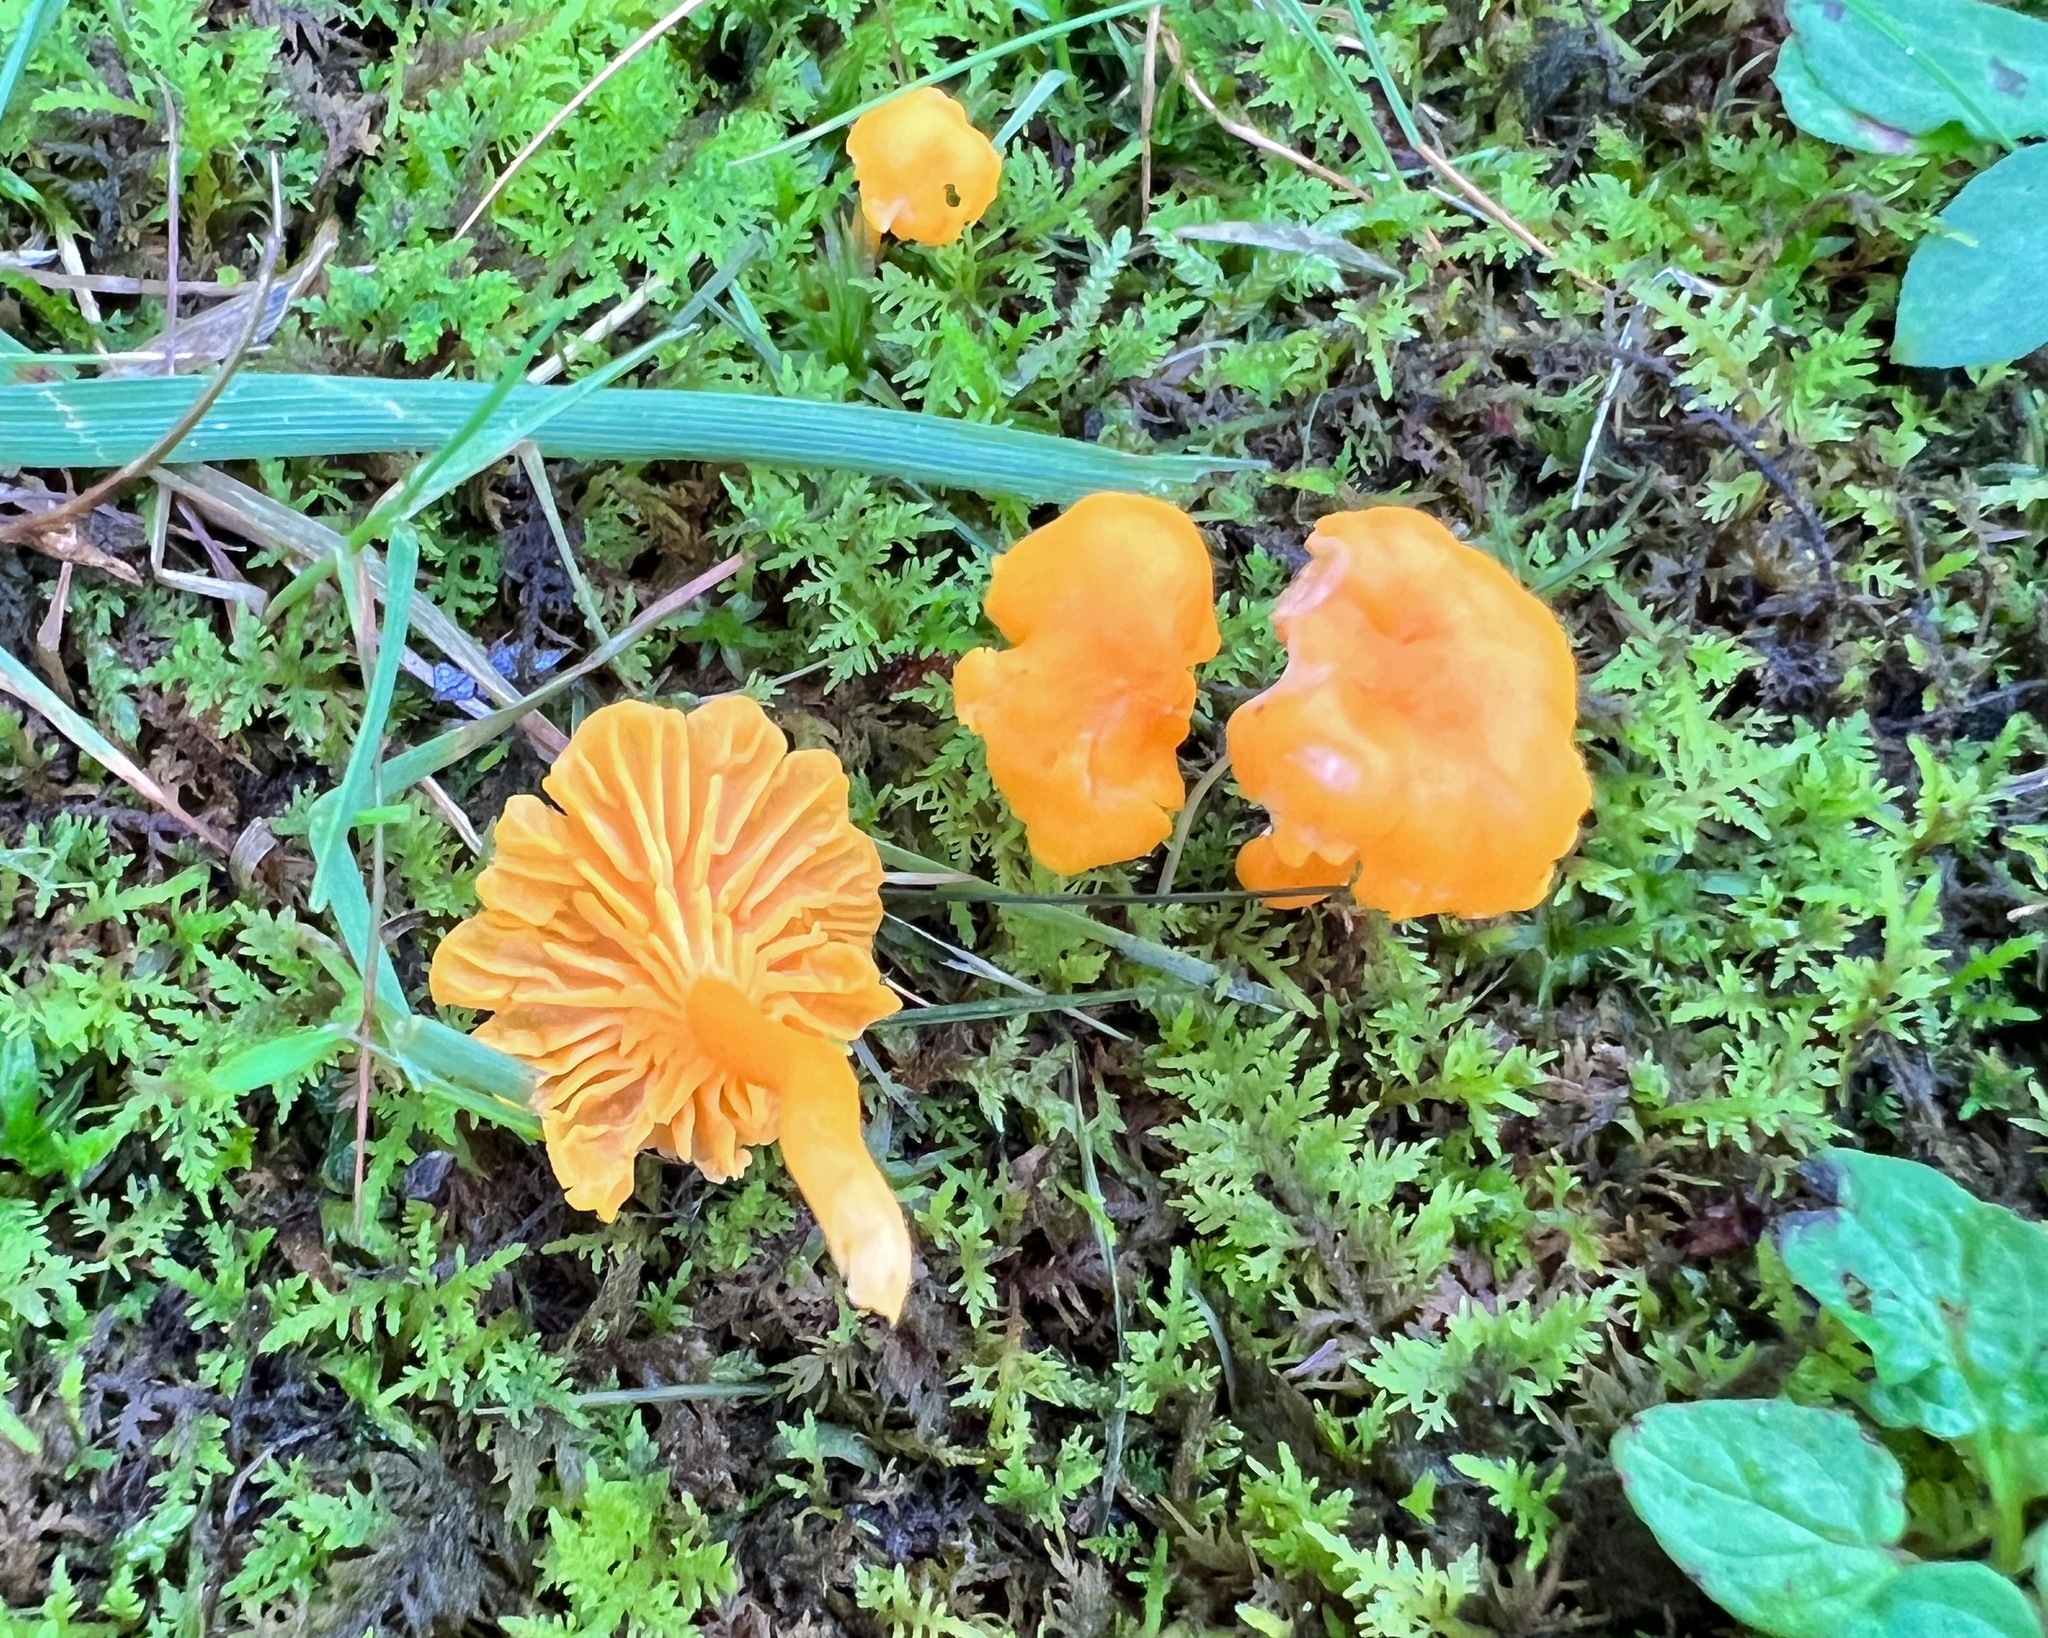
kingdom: Fungi
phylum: Basidiomycota
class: Agaricomycetes
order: Cantharellales
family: Hydnaceae
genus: Cantharellus
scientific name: Cantharellus minor
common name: Small chanterelle
